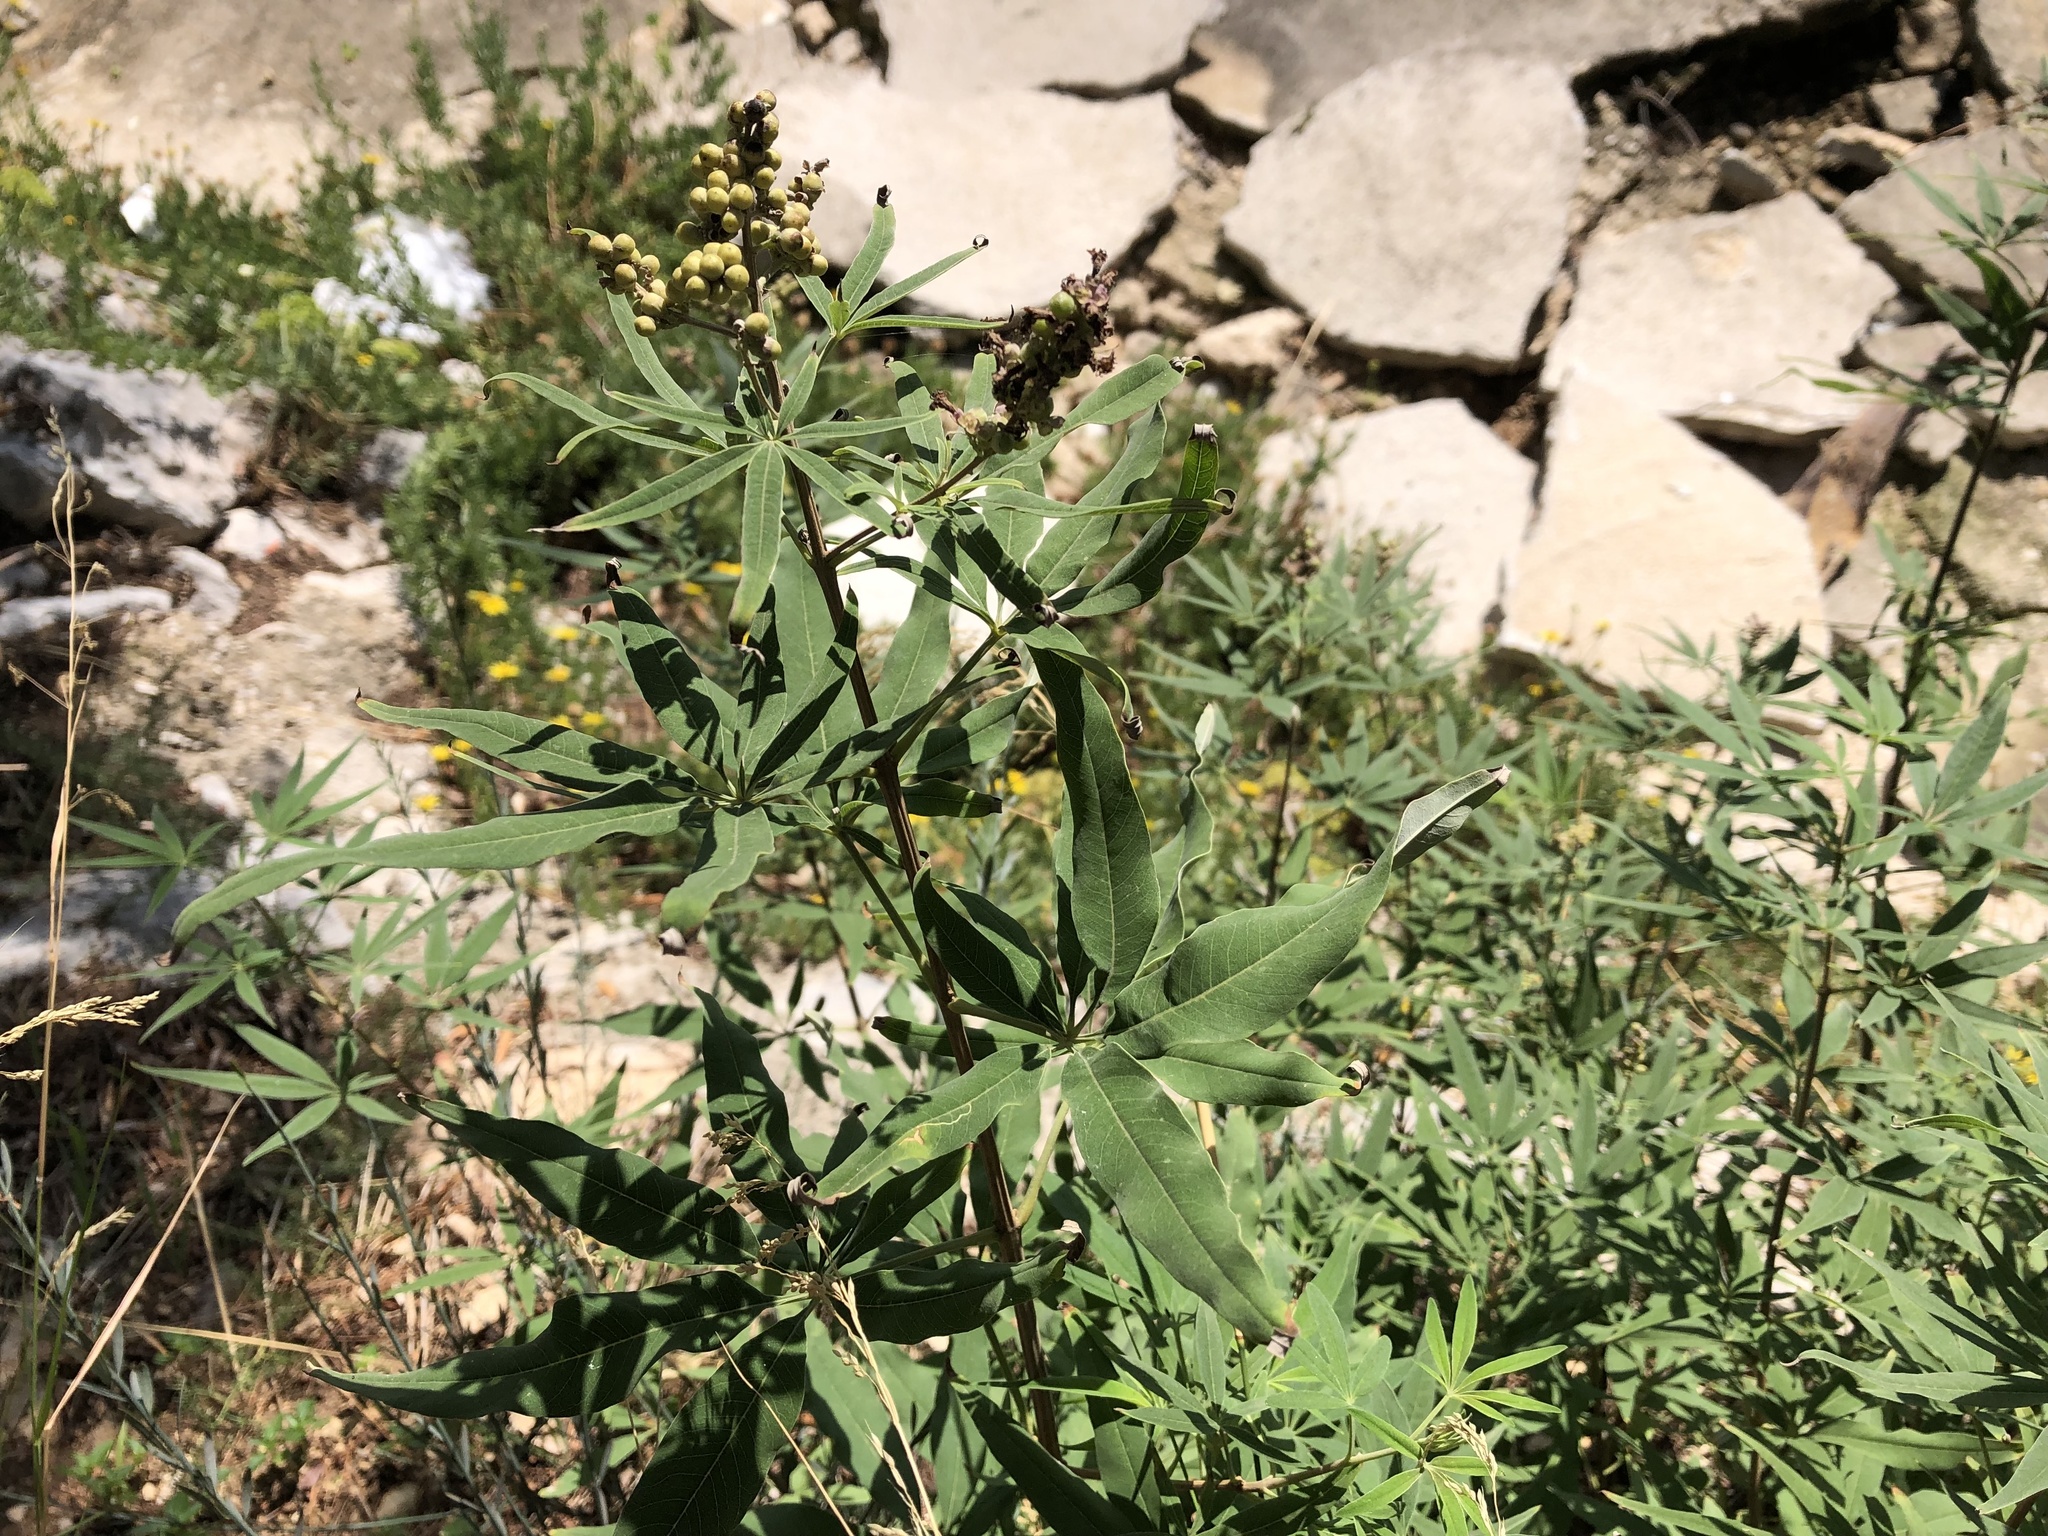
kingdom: Plantae
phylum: Tracheophyta
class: Magnoliopsida
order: Lamiales
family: Lamiaceae
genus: Vitex
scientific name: Vitex agnus-castus
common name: Chasteberry
